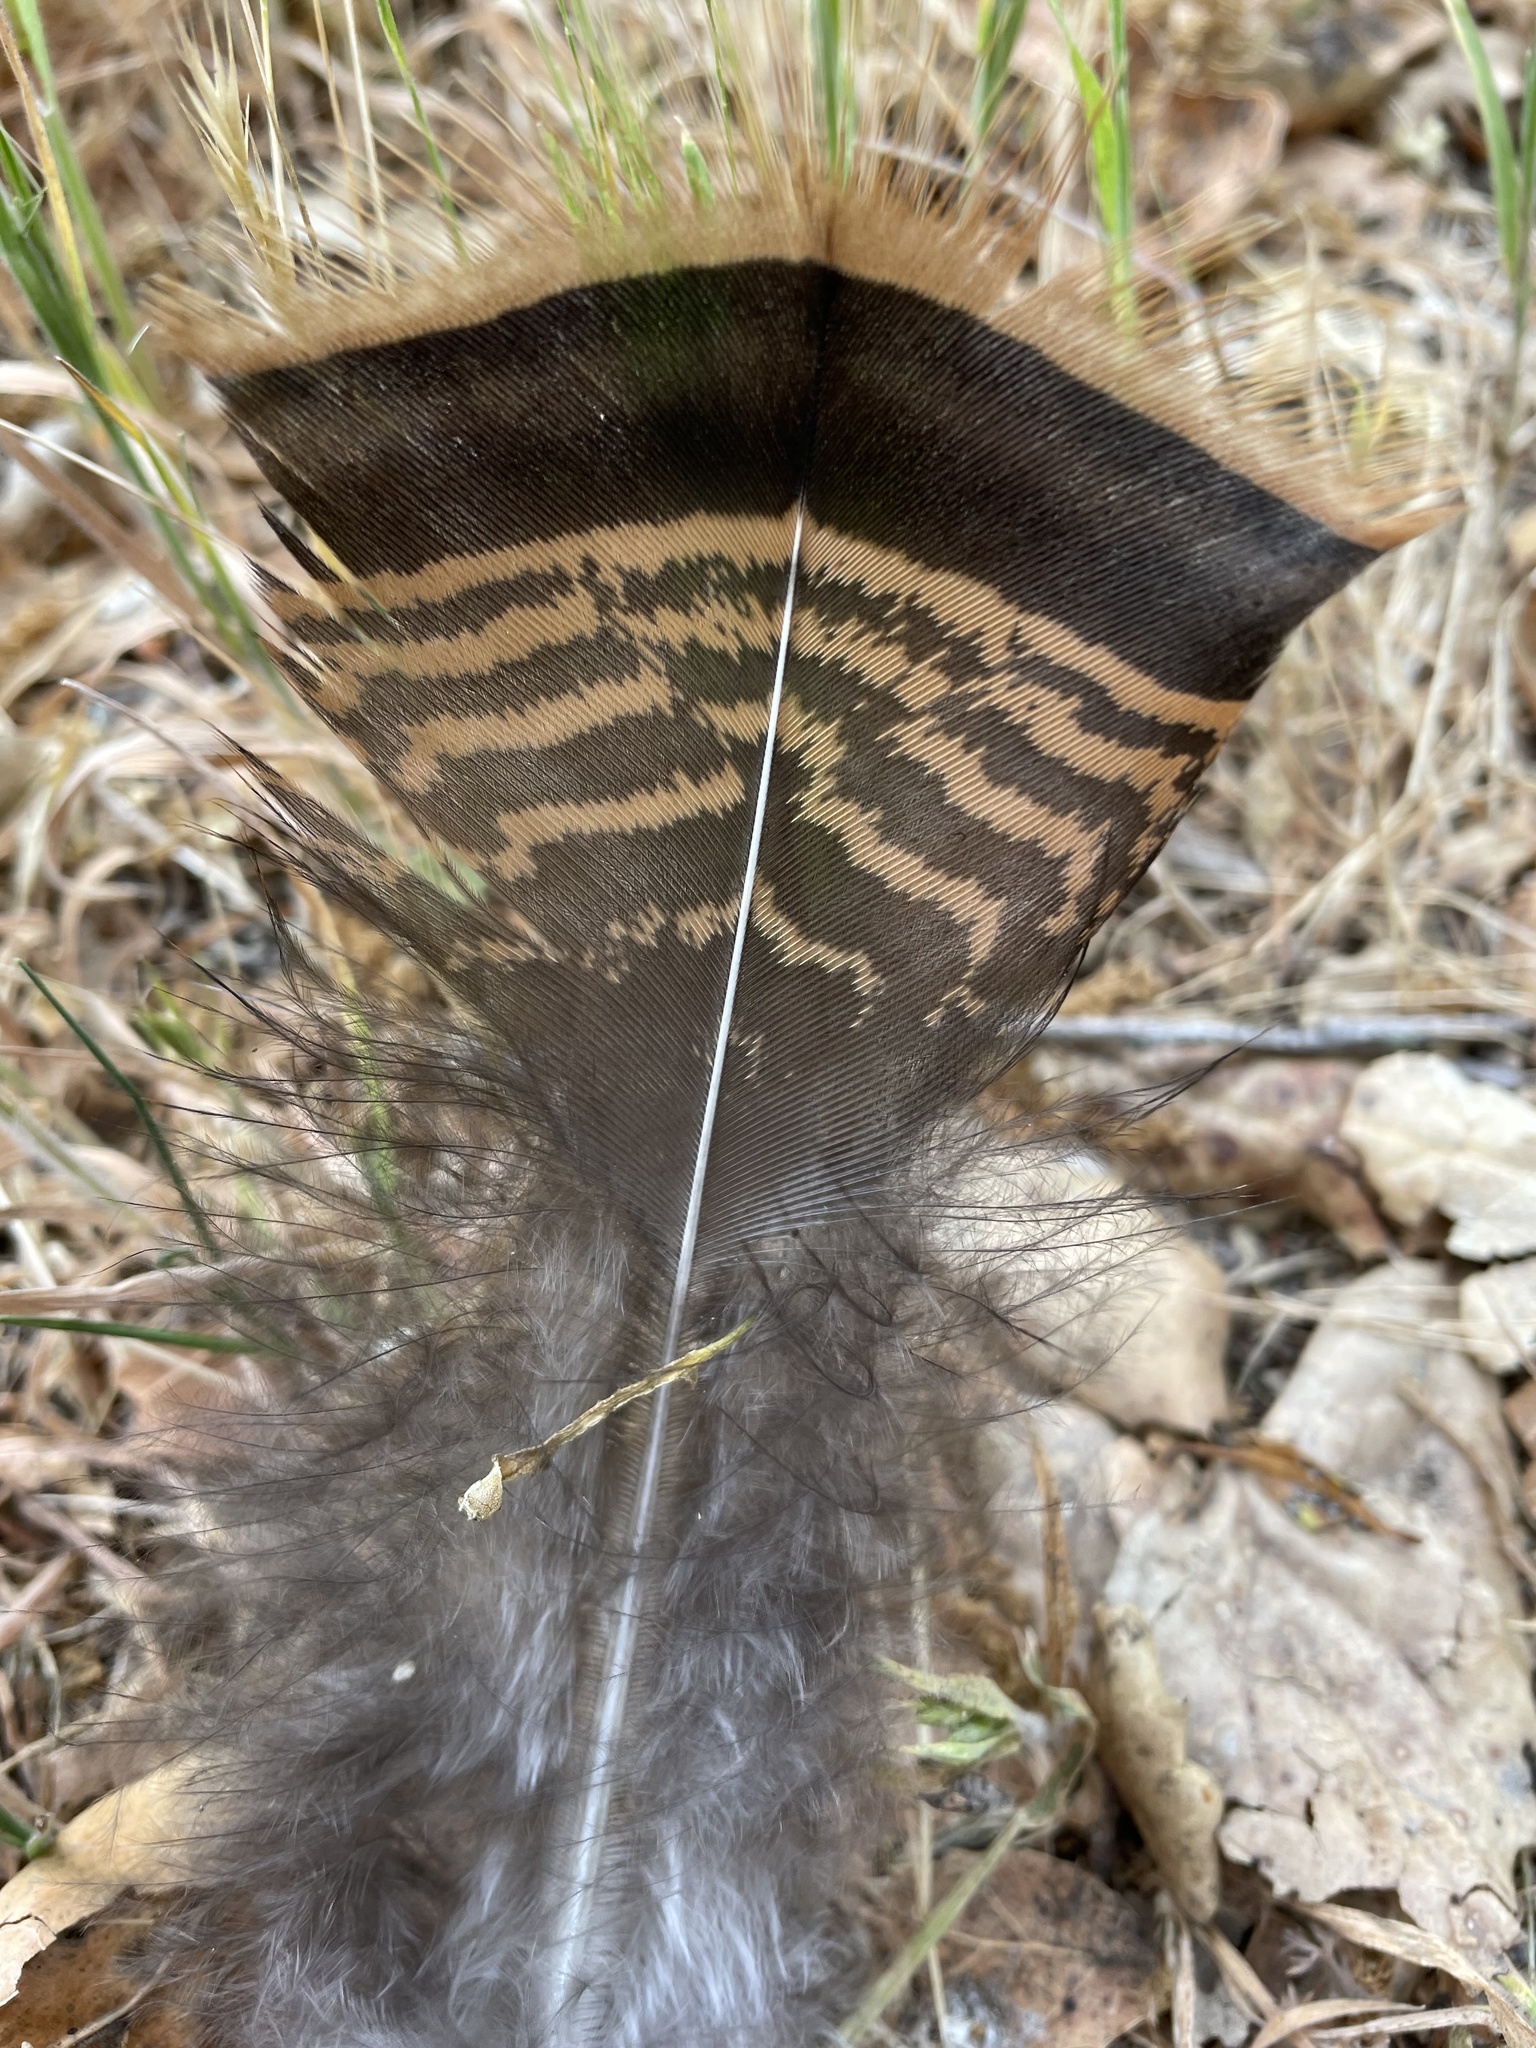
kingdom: Animalia
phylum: Chordata
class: Aves
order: Galliformes
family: Phasianidae
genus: Meleagris
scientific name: Meleagris gallopavo
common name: Wild turkey
